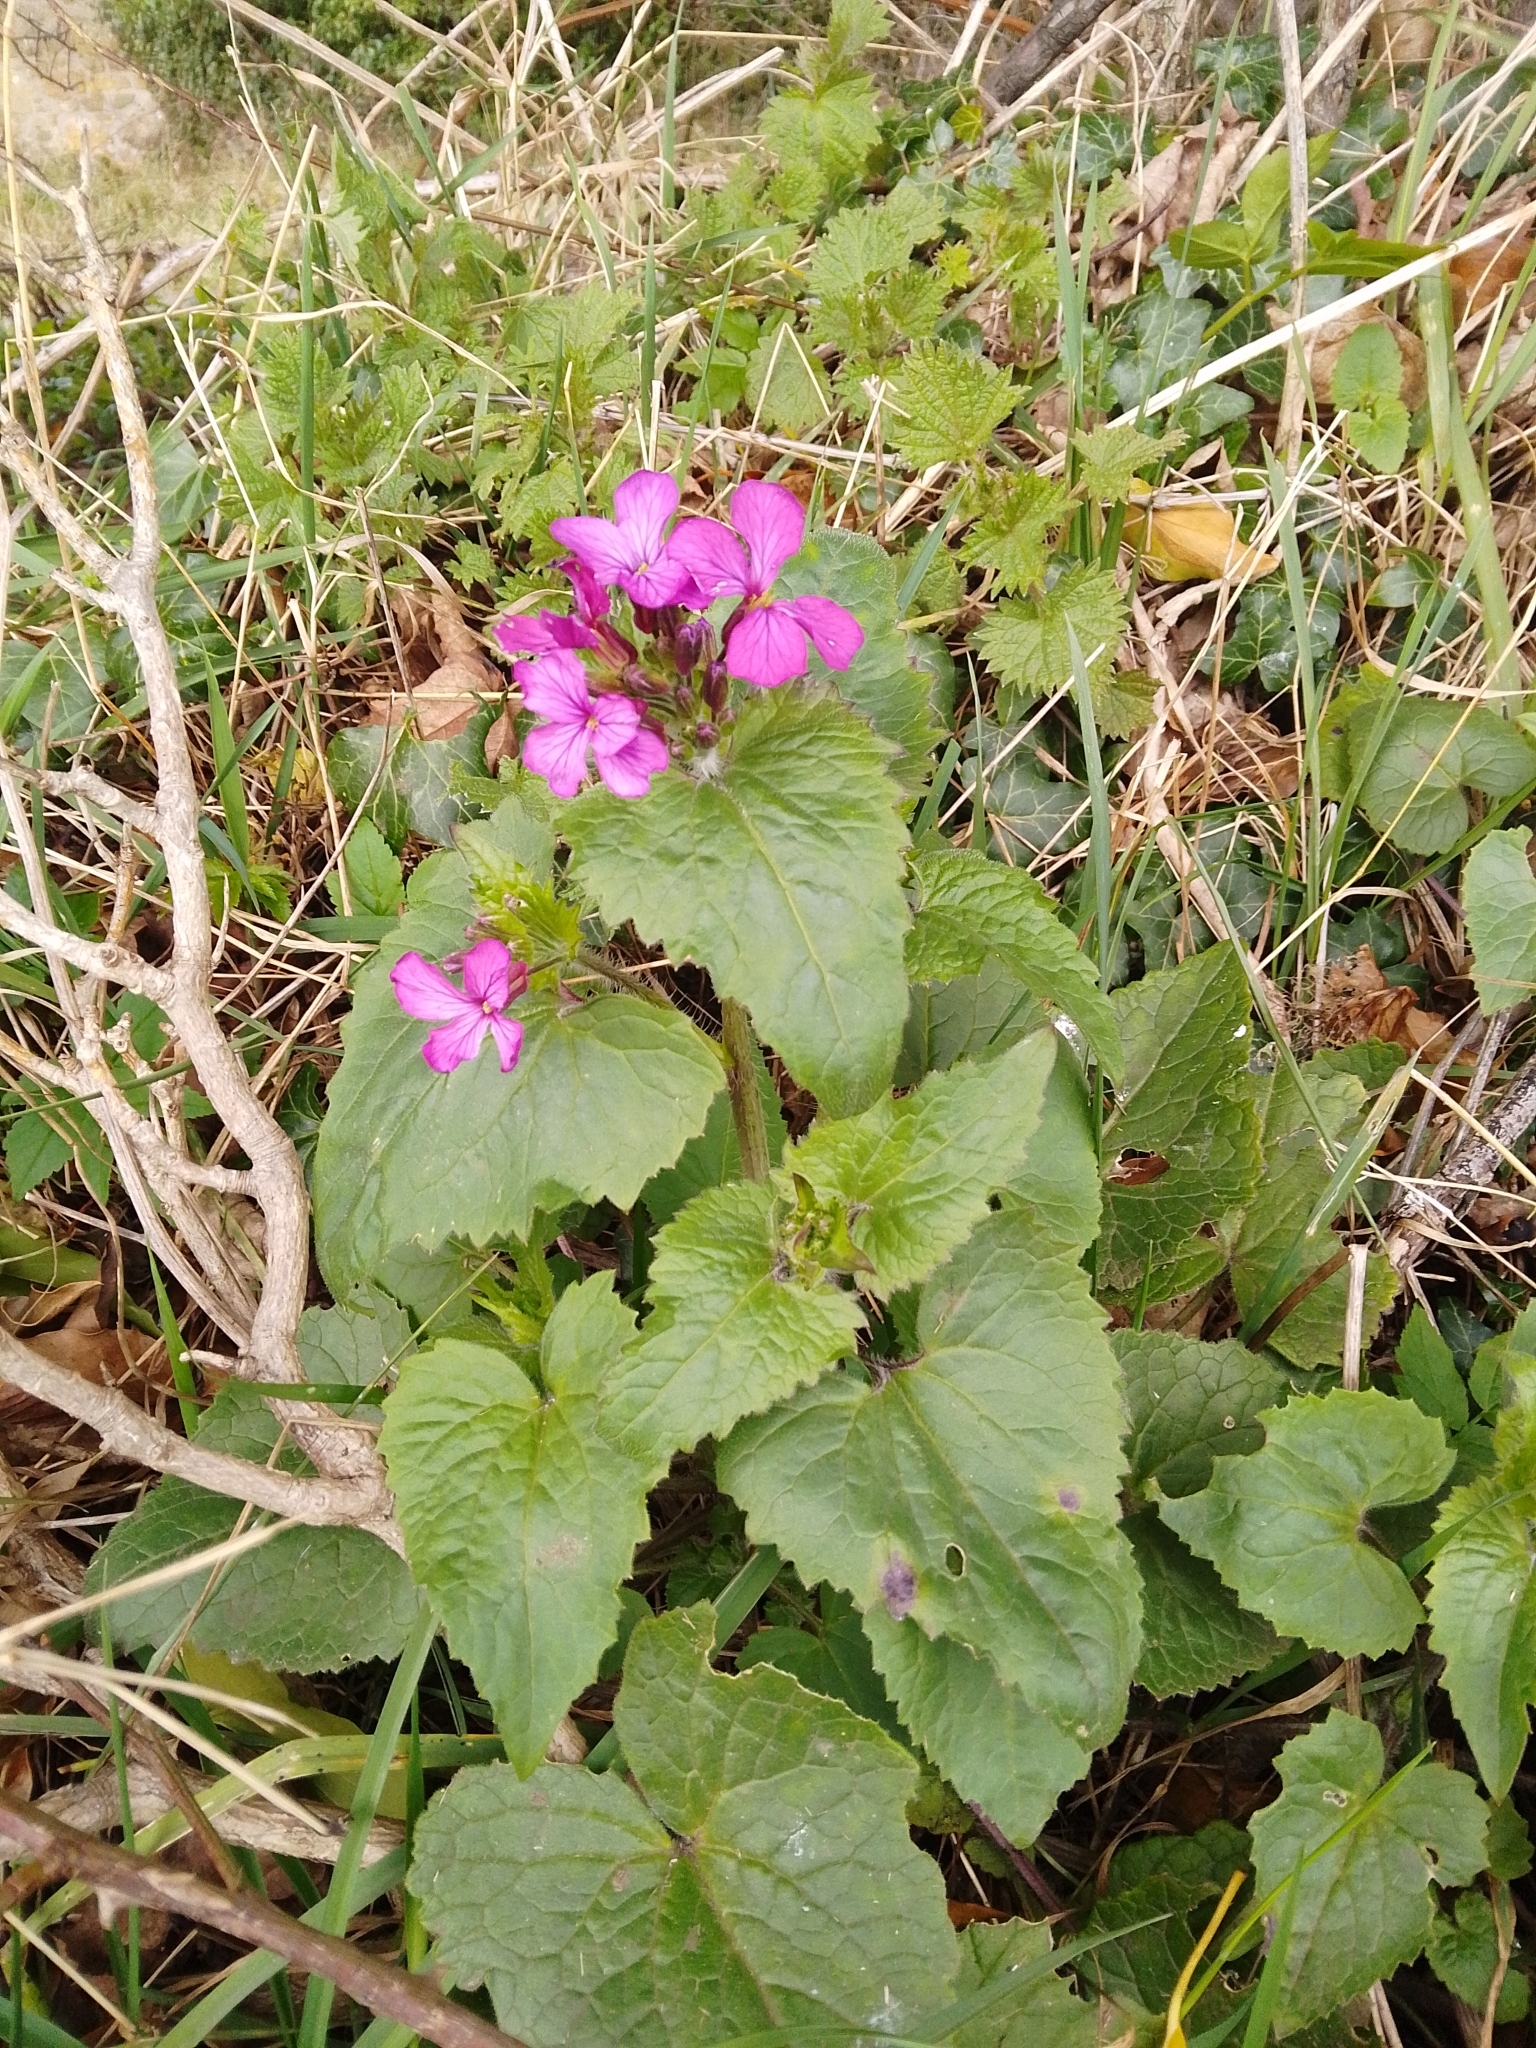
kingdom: Plantae
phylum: Tracheophyta
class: Magnoliopsida
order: Brassicales
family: Brassicaceae
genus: Lunaria
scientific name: Lunaria annua
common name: Honesty
